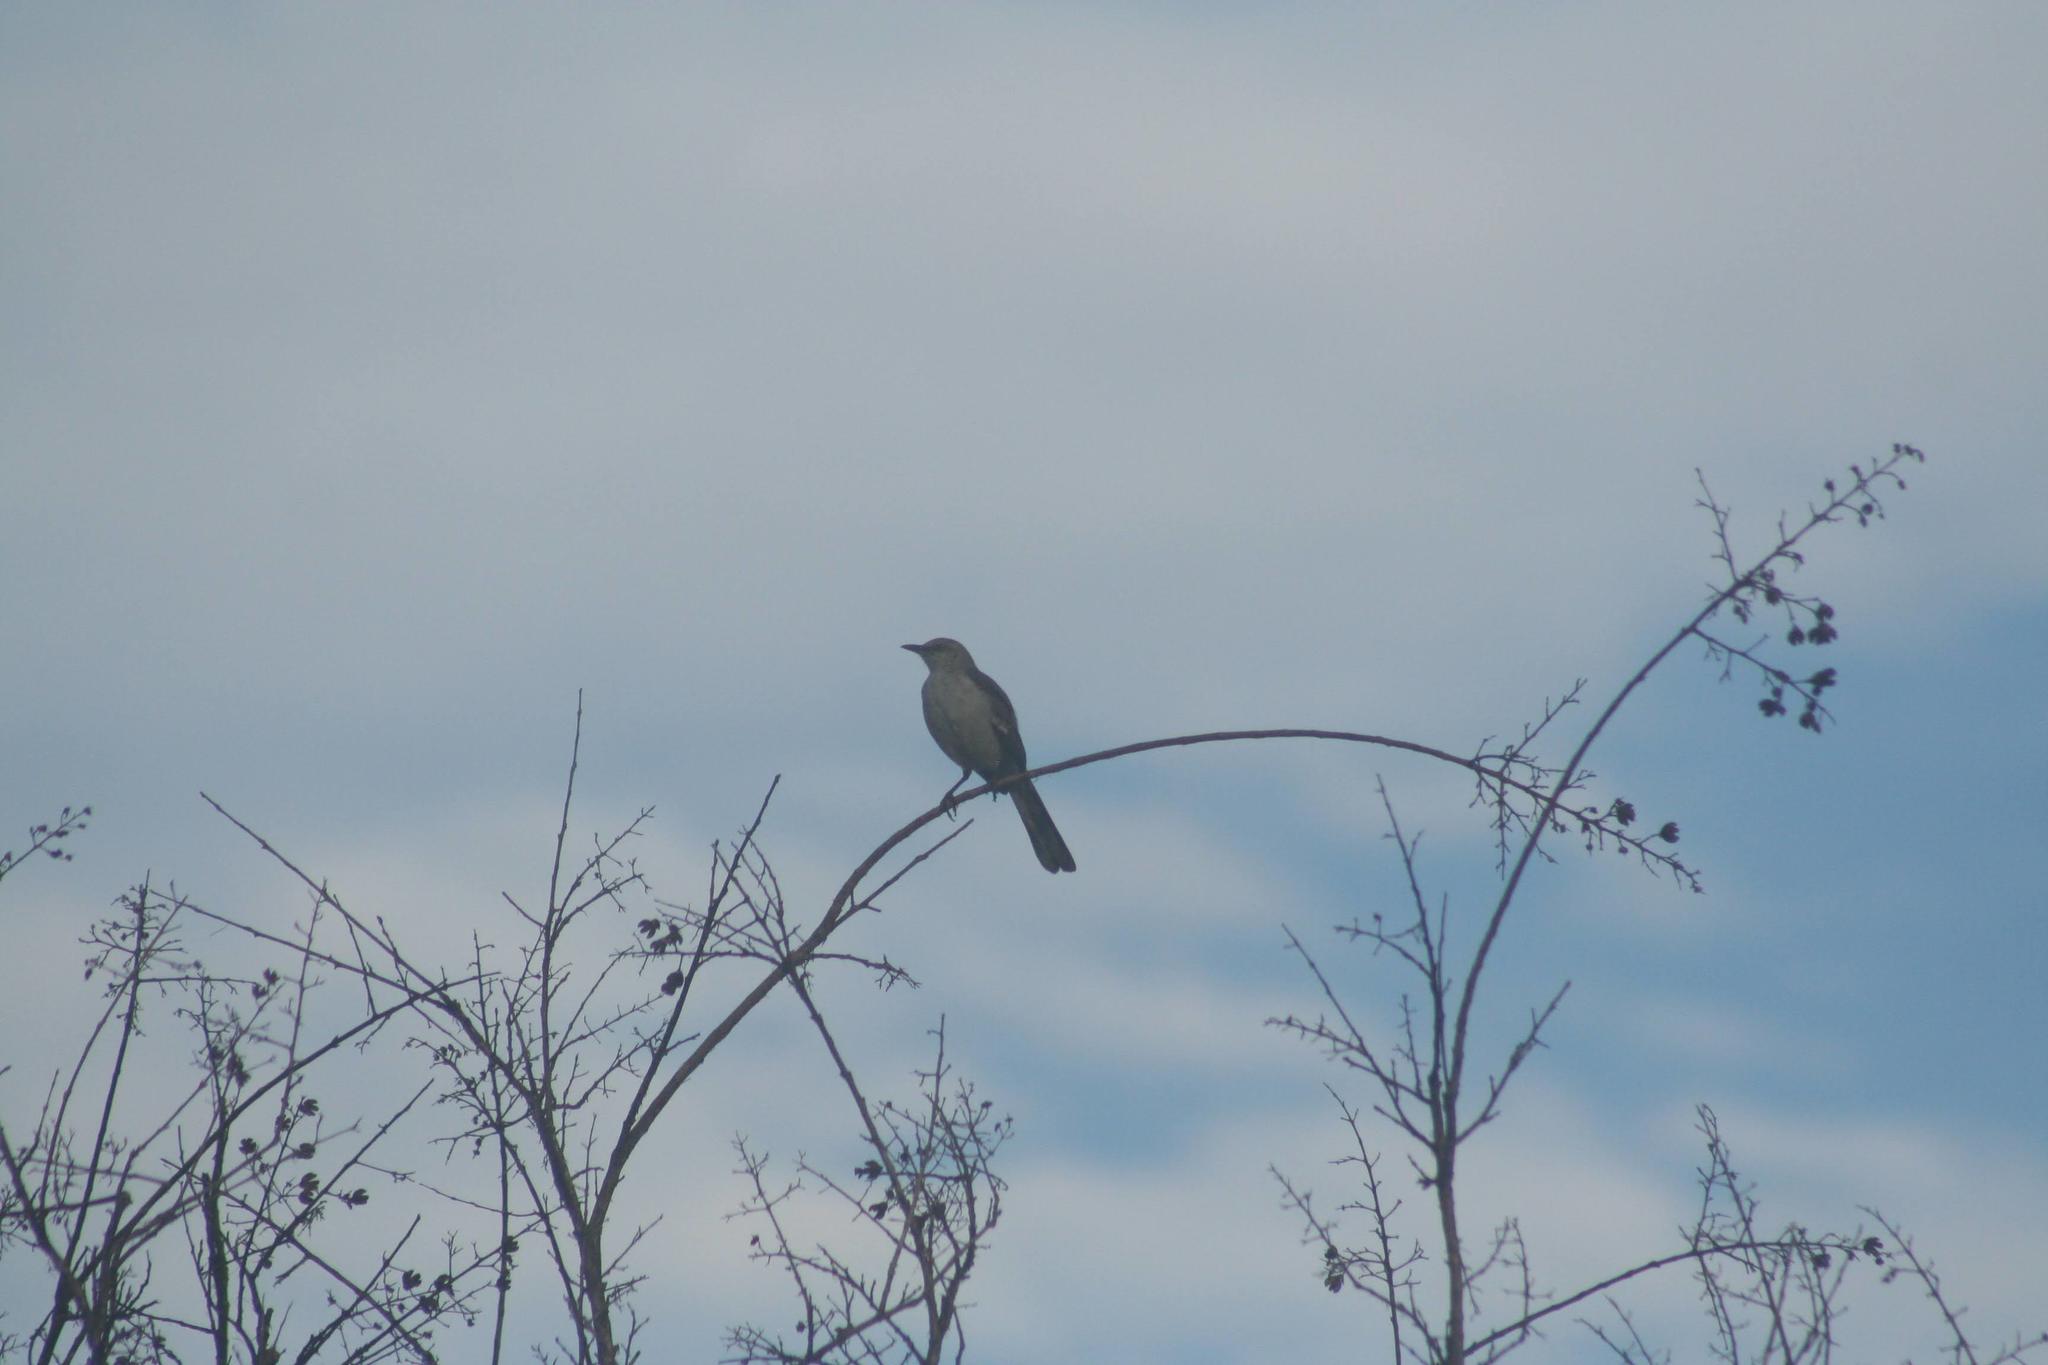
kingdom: Animalia
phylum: Chordata
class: Aves
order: Passeriformes
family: Mimidae
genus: Mimus
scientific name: Mimus polyglottos
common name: Northern mockingbird
